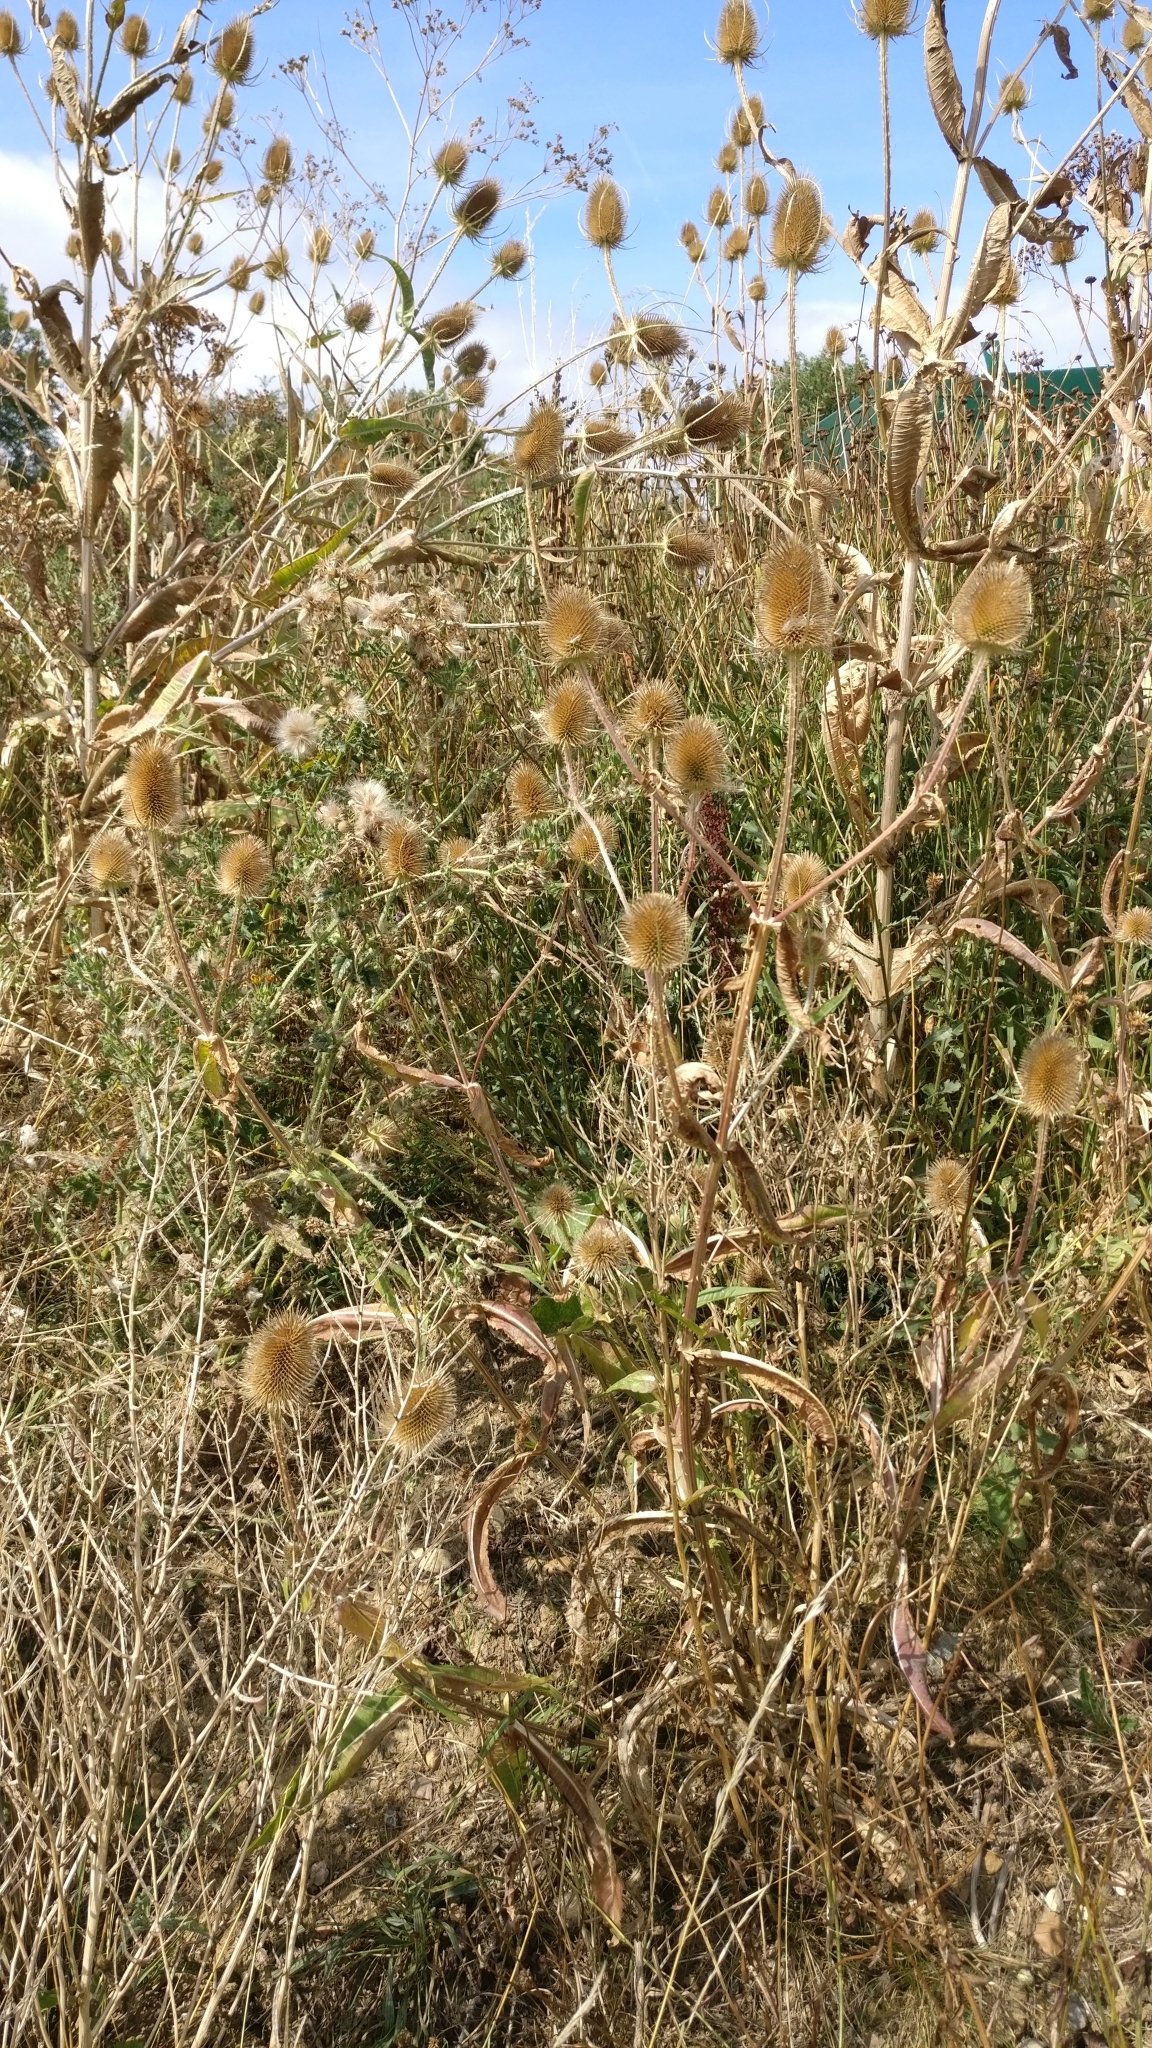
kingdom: Plantae
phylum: Tracheophyta
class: Magnoliopsida
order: Dipsacales
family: Caprifoliaceae
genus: Dipsacus
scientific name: Dipsacus fullonum
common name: Teasel
